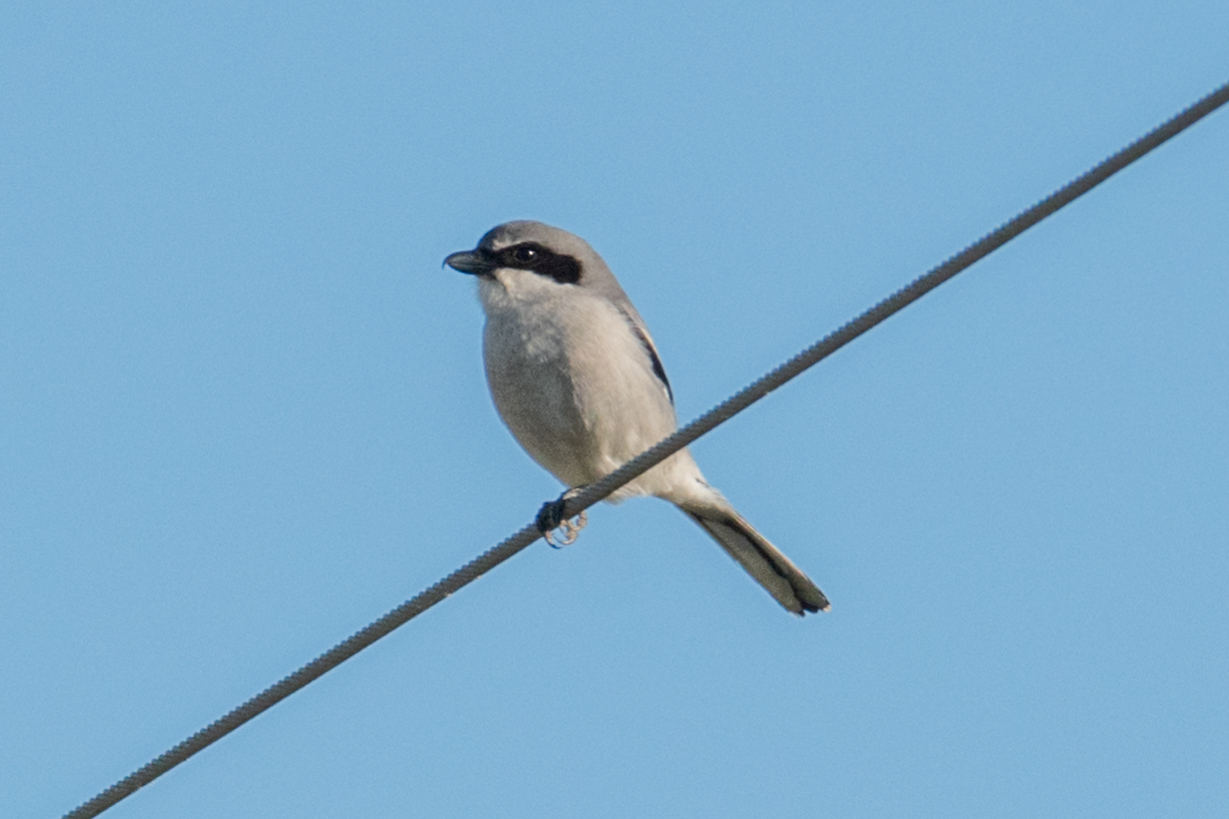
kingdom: Animalia
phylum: Chordata
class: Aves
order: Passeriformes
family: Laniidae
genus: Lanius
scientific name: Lanius ludovicianus
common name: Loggerhead shrike
